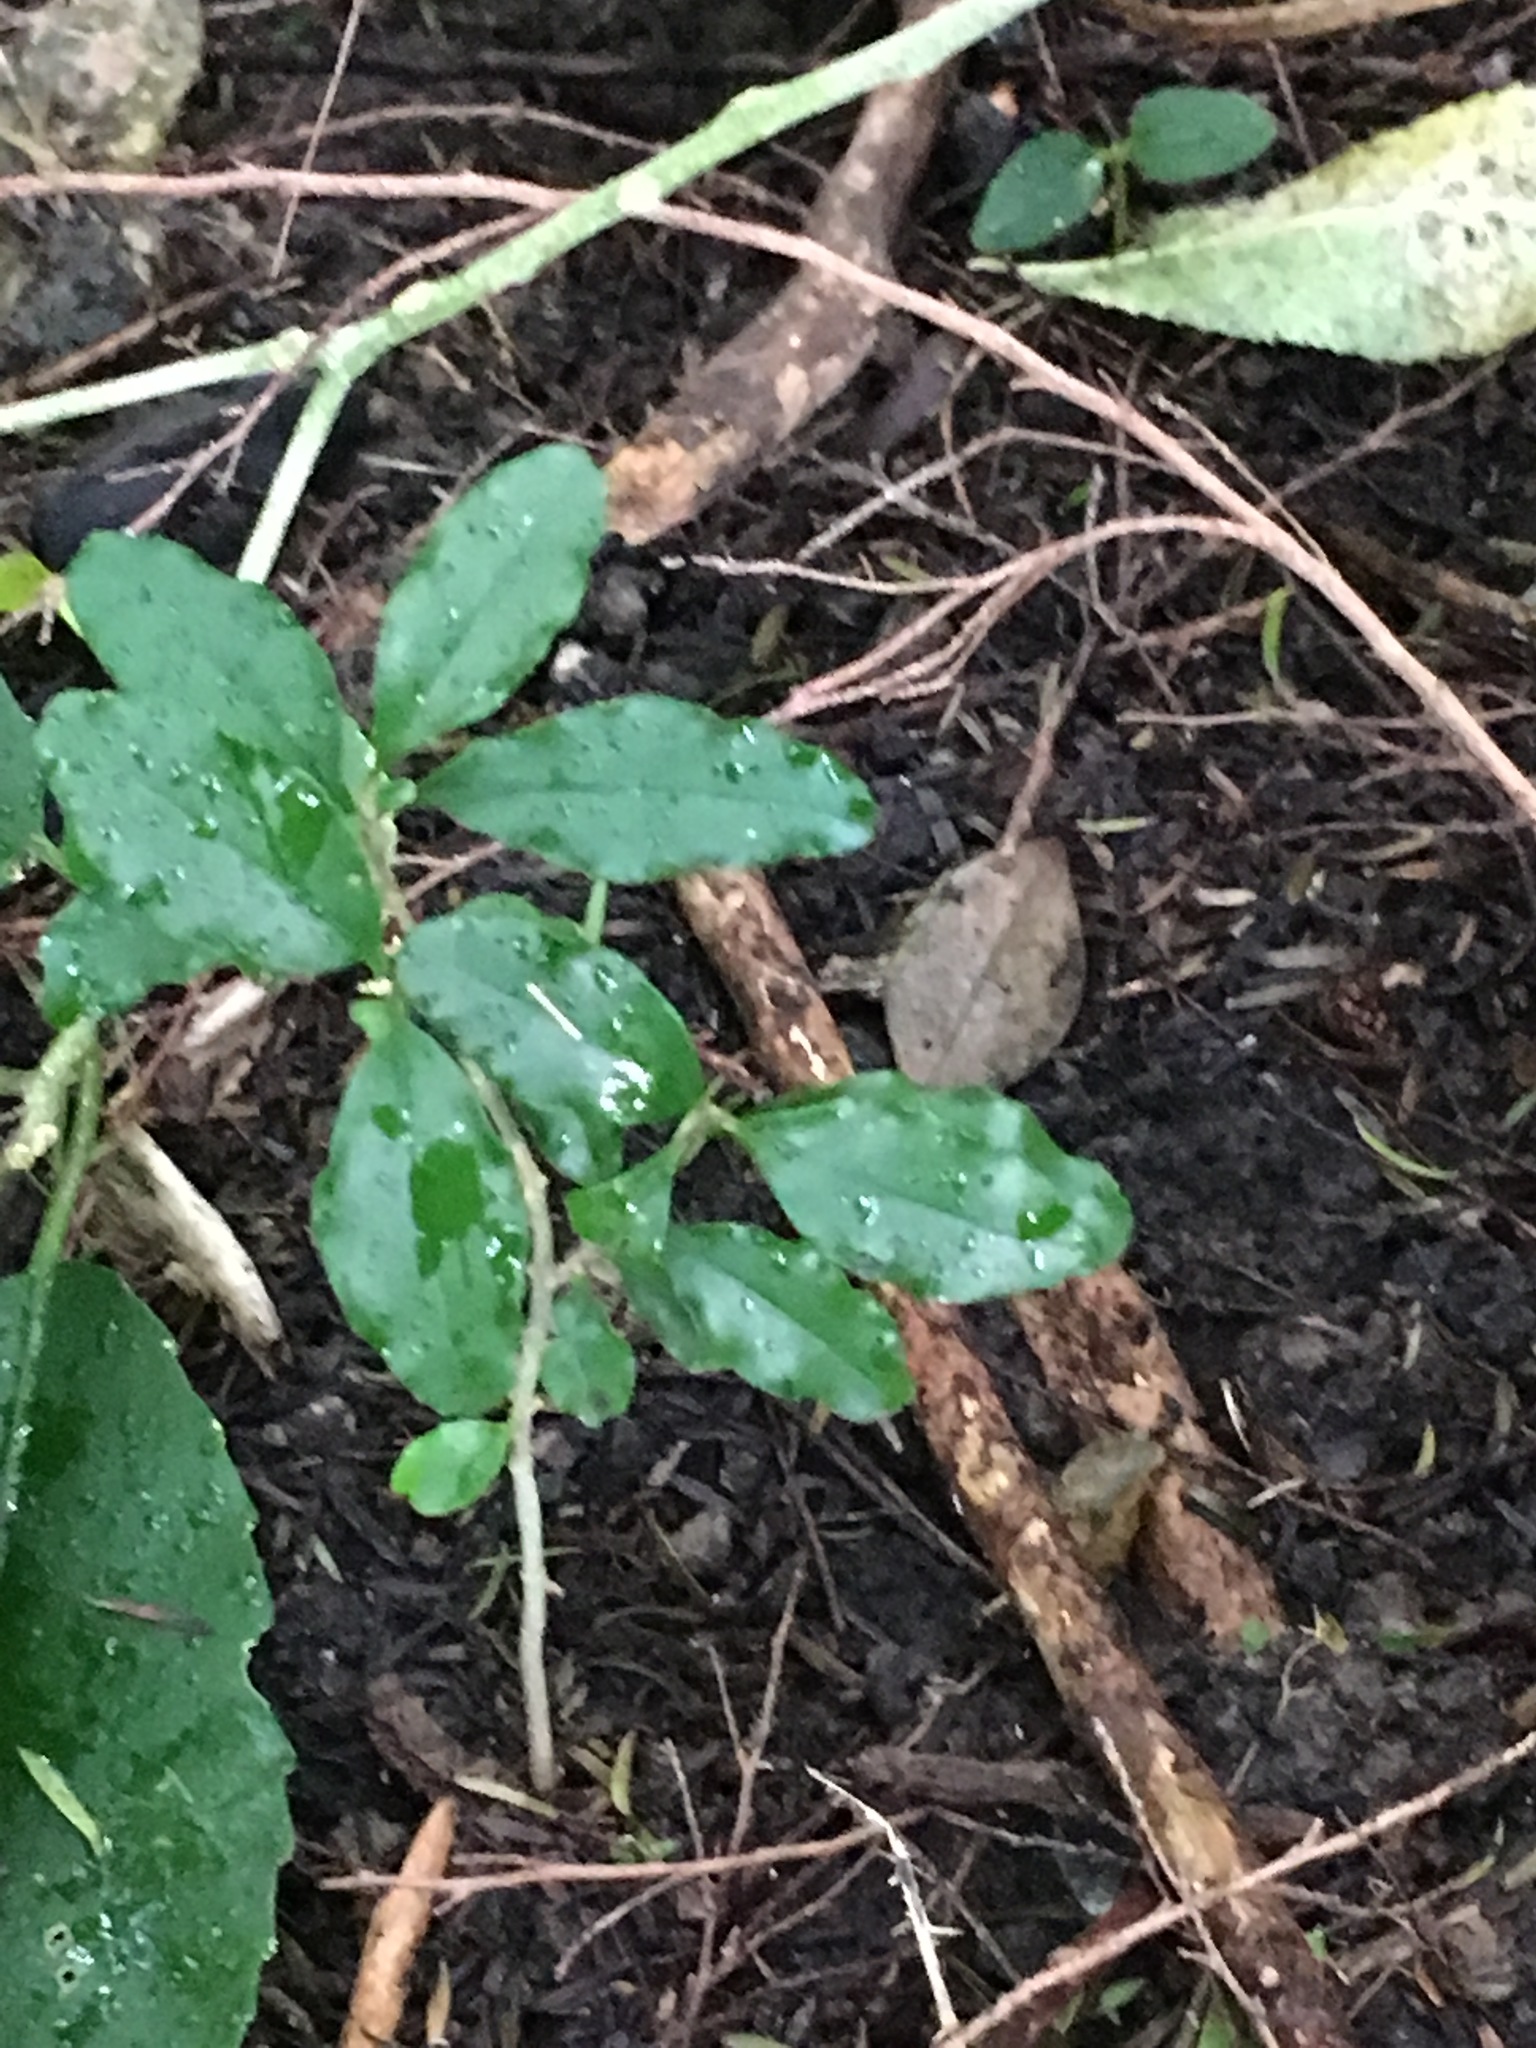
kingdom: Plantae
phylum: Tracheophyta
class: Magnoliopsida
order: Lamiales
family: Oleaceae
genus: Ligustrum
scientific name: Ligustrum sinense
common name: Chinese privet
